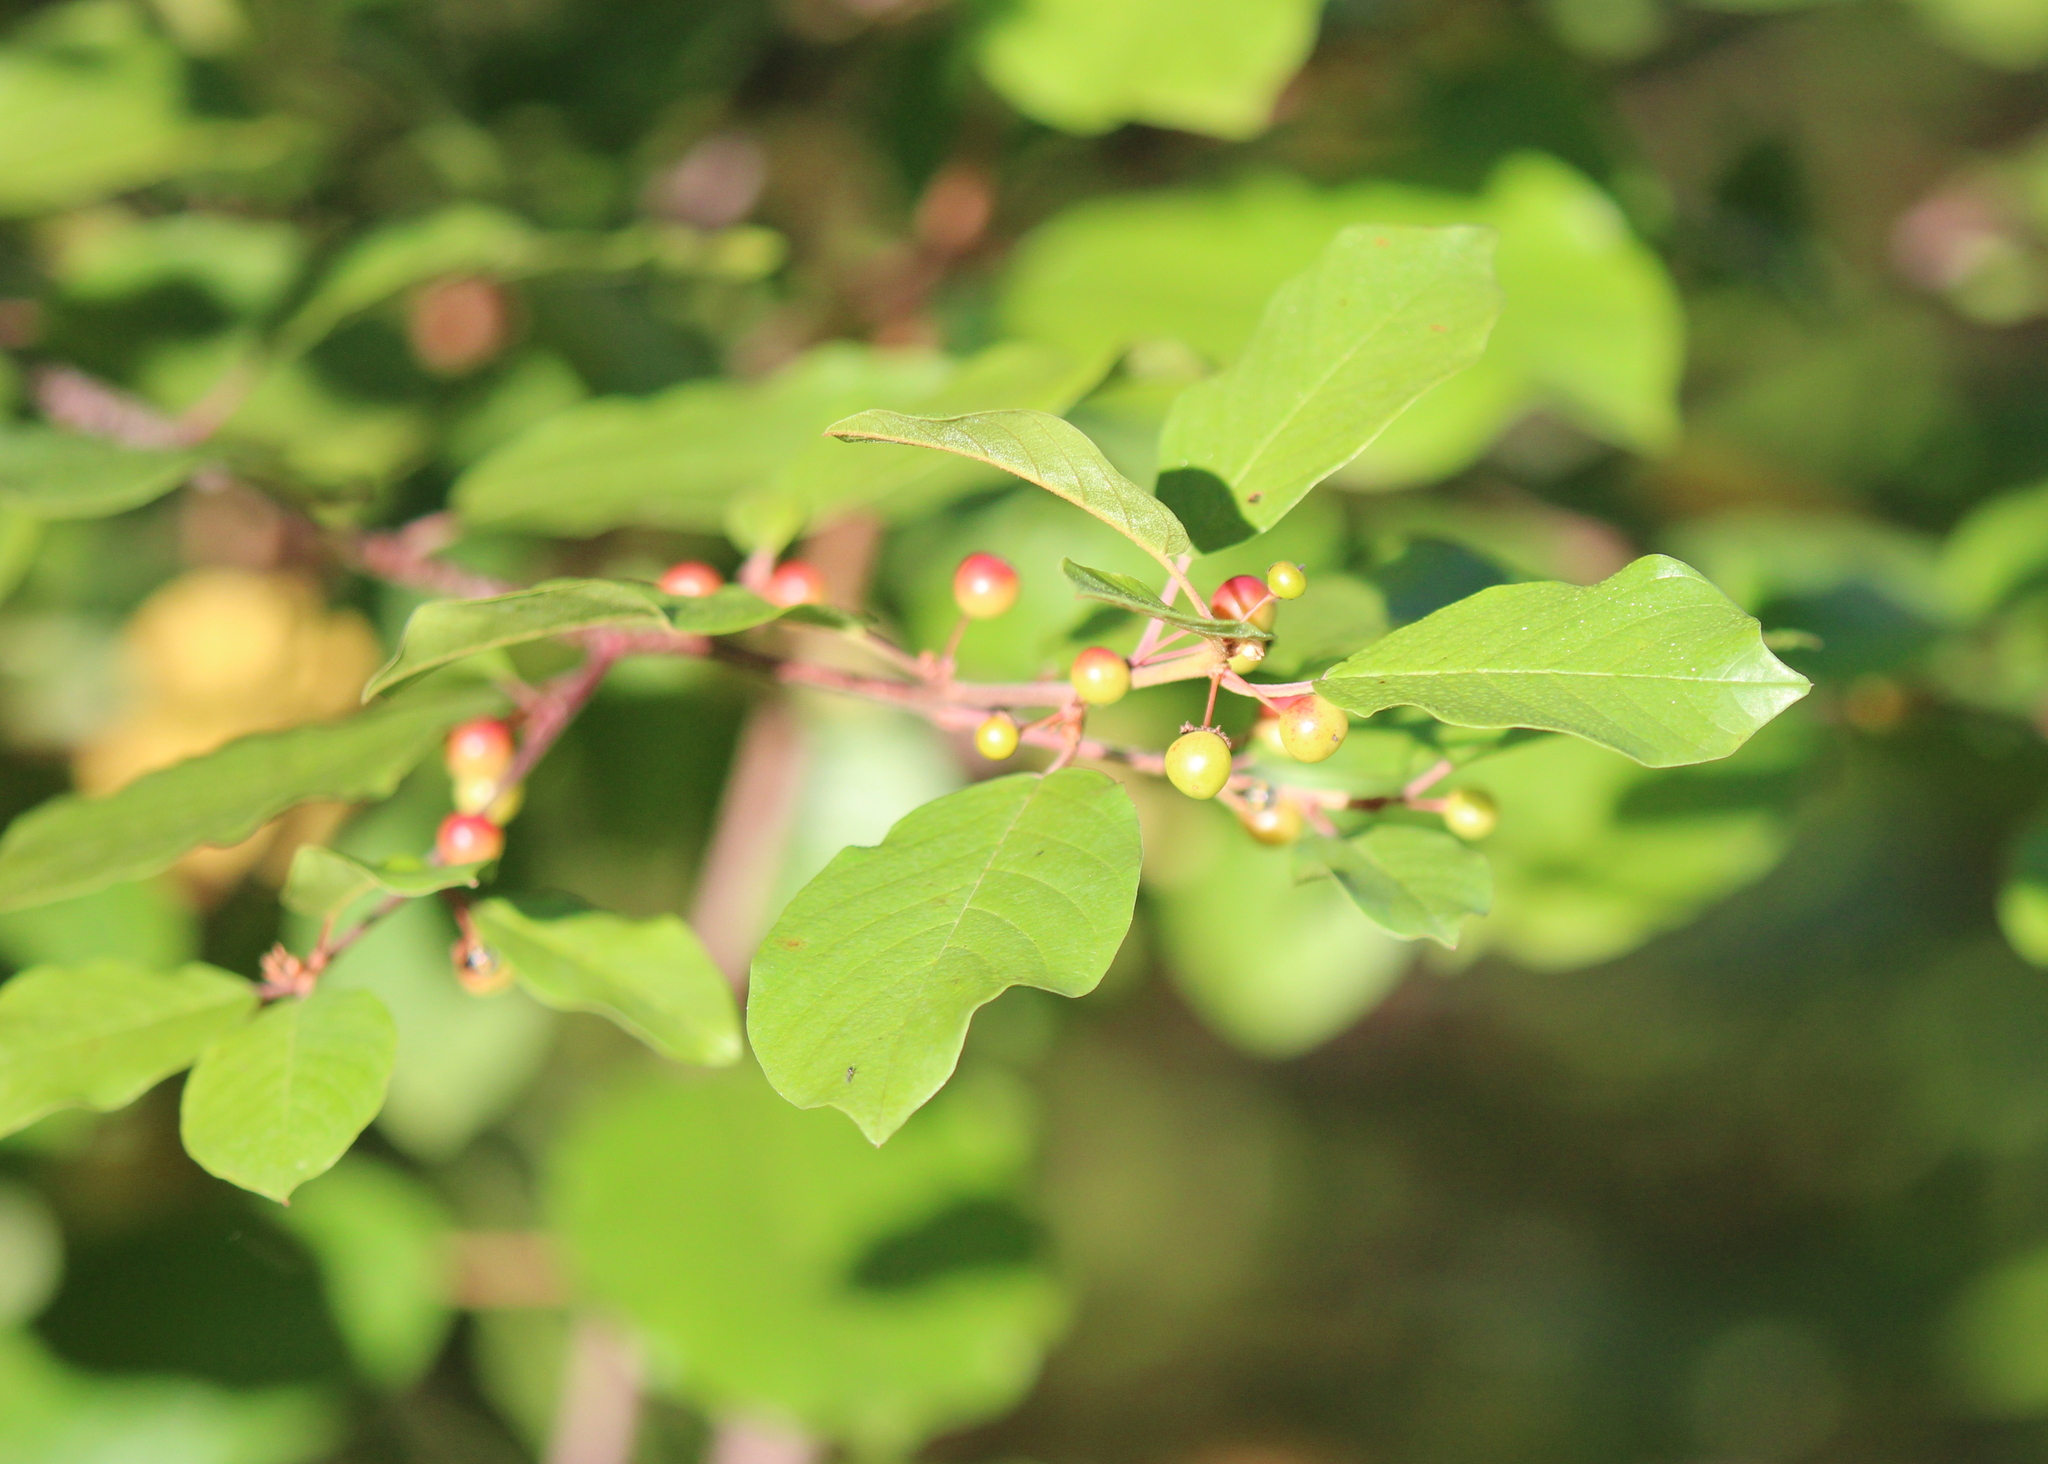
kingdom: Plantae
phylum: Tracheophyta
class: Magnoliopsida
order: Rosales
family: Rhamnaceae
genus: Frangula
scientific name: Frangula alnus
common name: Alder buckthorn
